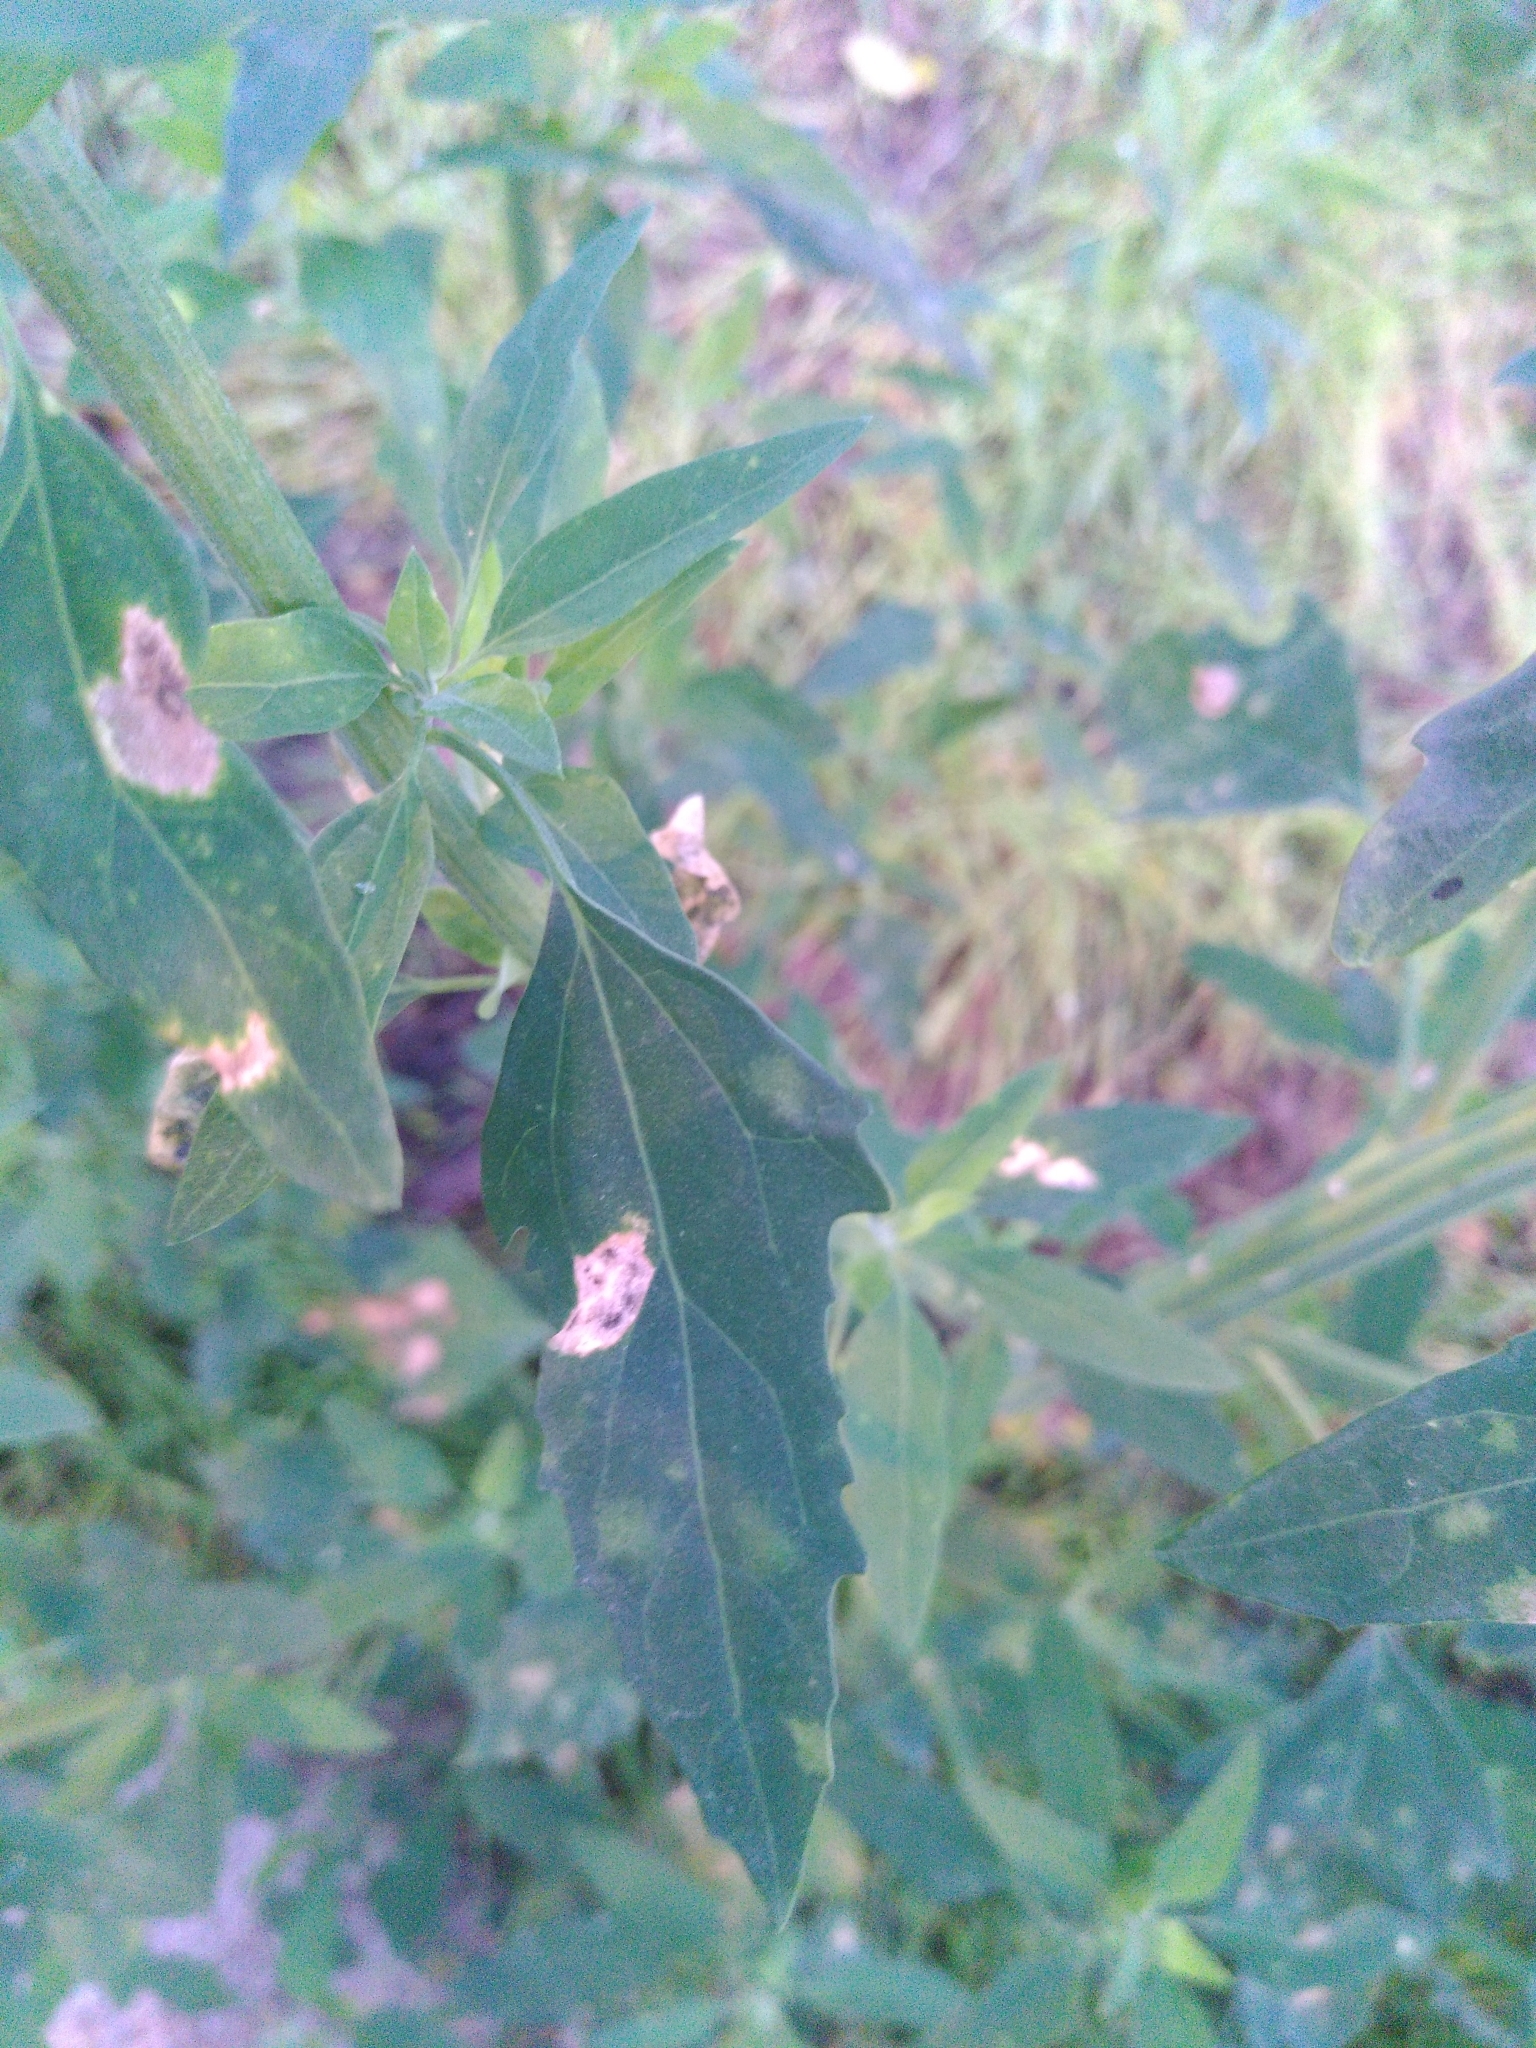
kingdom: Plantae
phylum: Tracheophyta
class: Magnoliopsida
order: Caryophyllales
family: Amaranthaceae
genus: Chenopodium
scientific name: Chenopodium album
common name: Fat-hen
